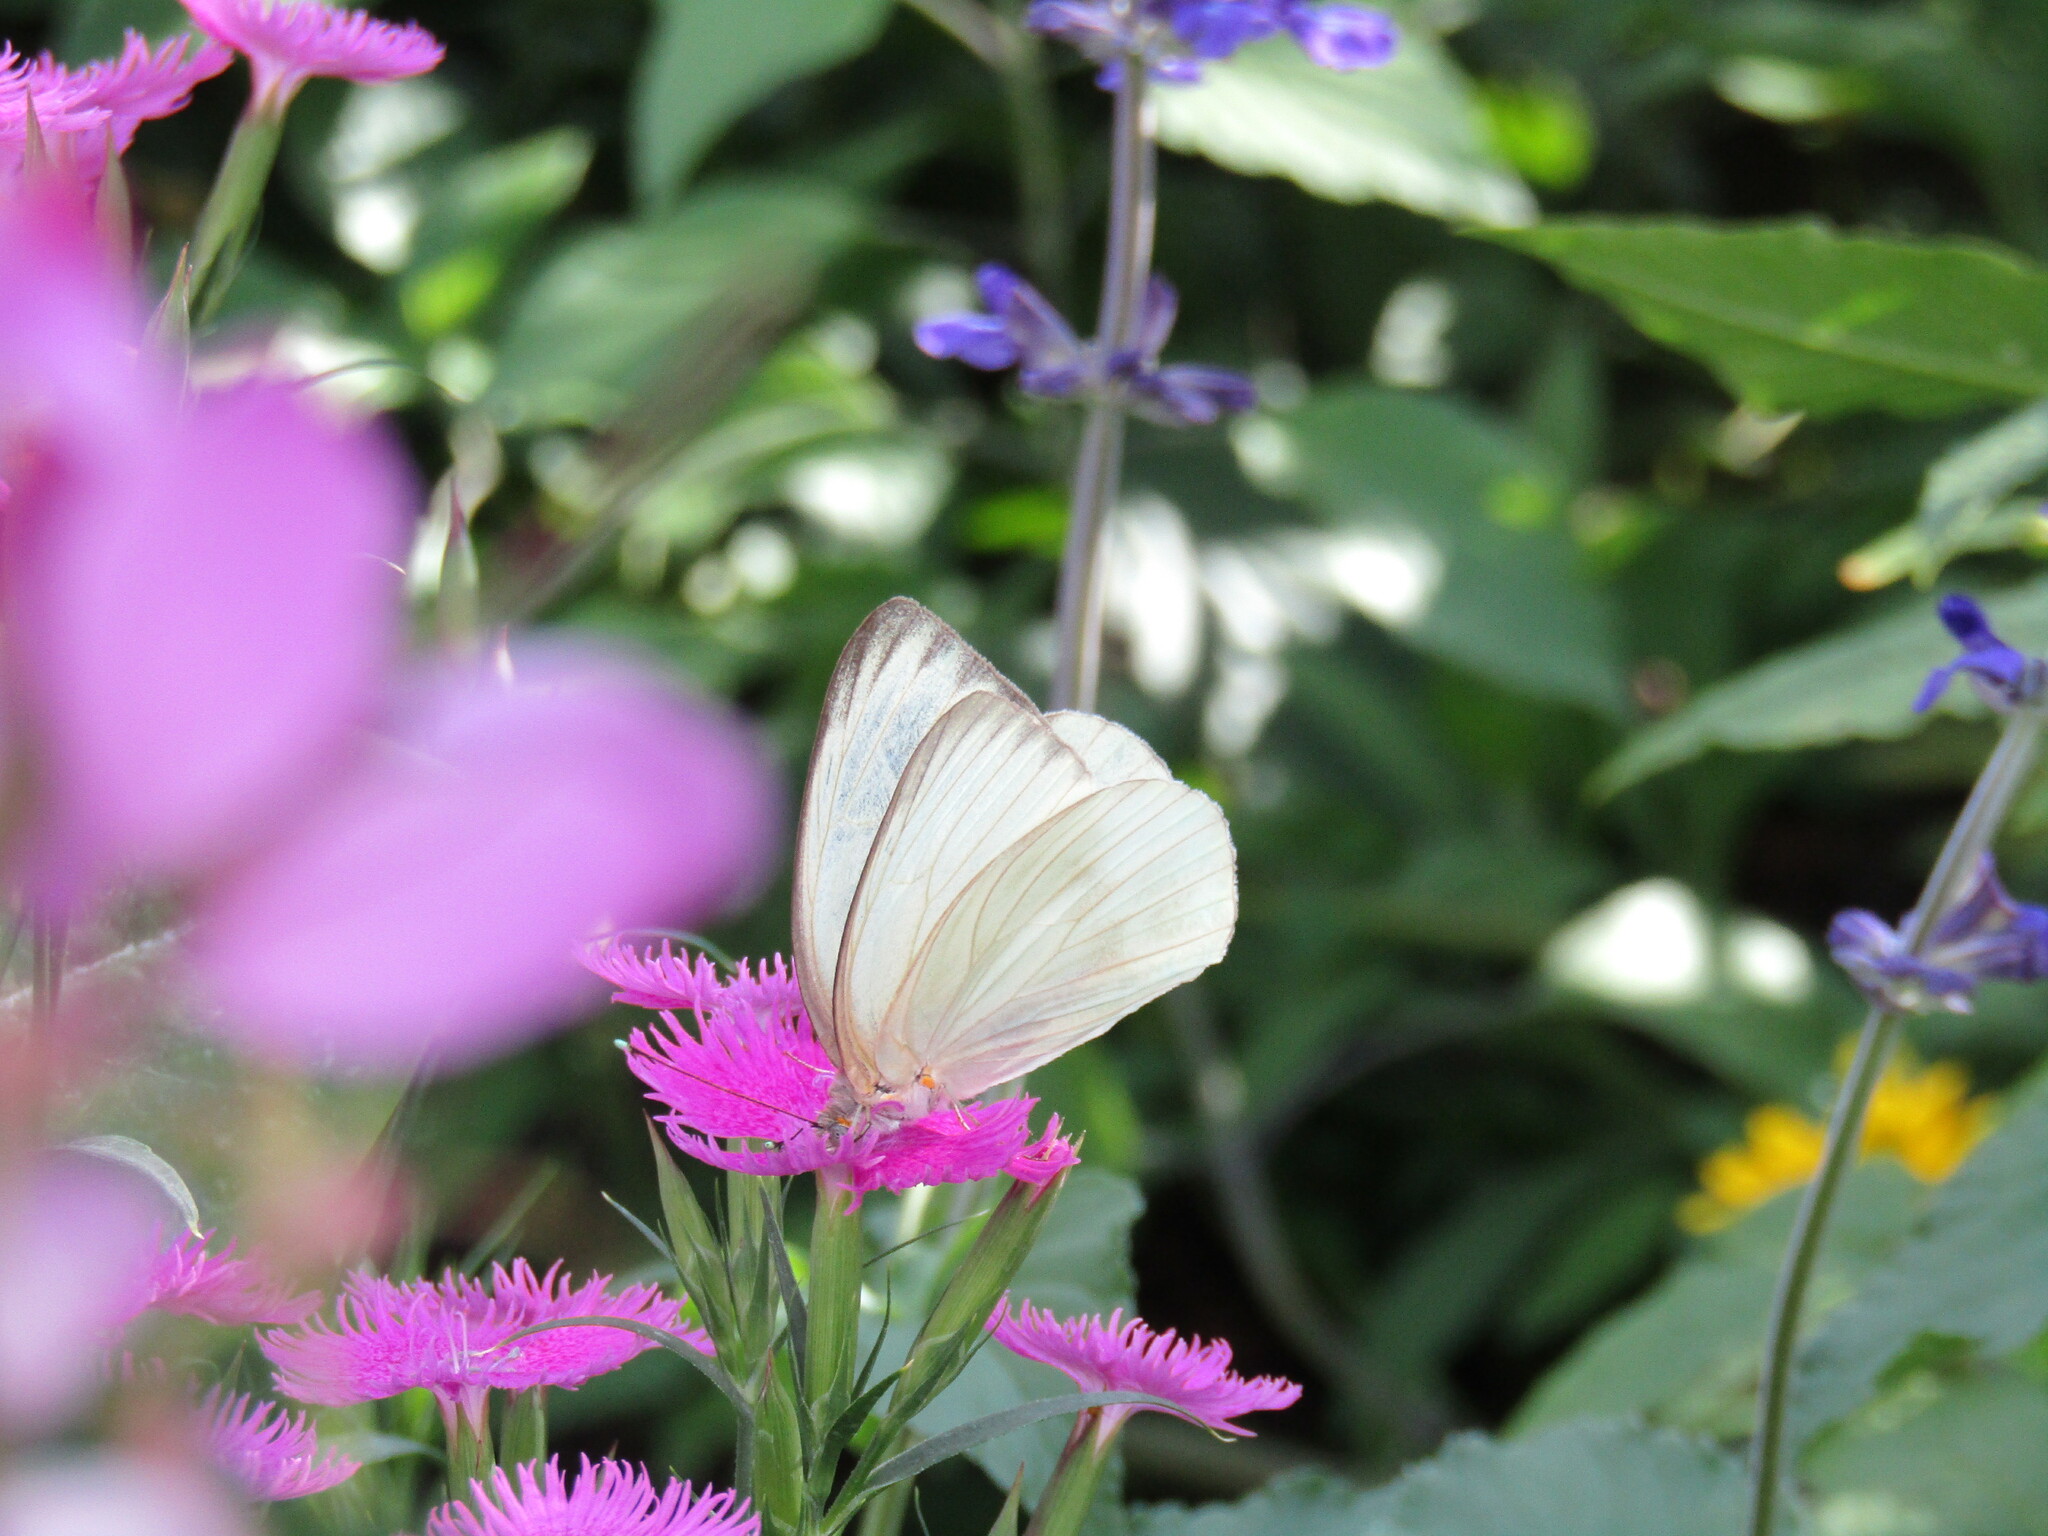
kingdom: Animalia
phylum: Arthropoda
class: Insecta
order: Lepidoptera
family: Pieridae
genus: Ascia
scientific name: Ascia monuste
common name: Great southern white
